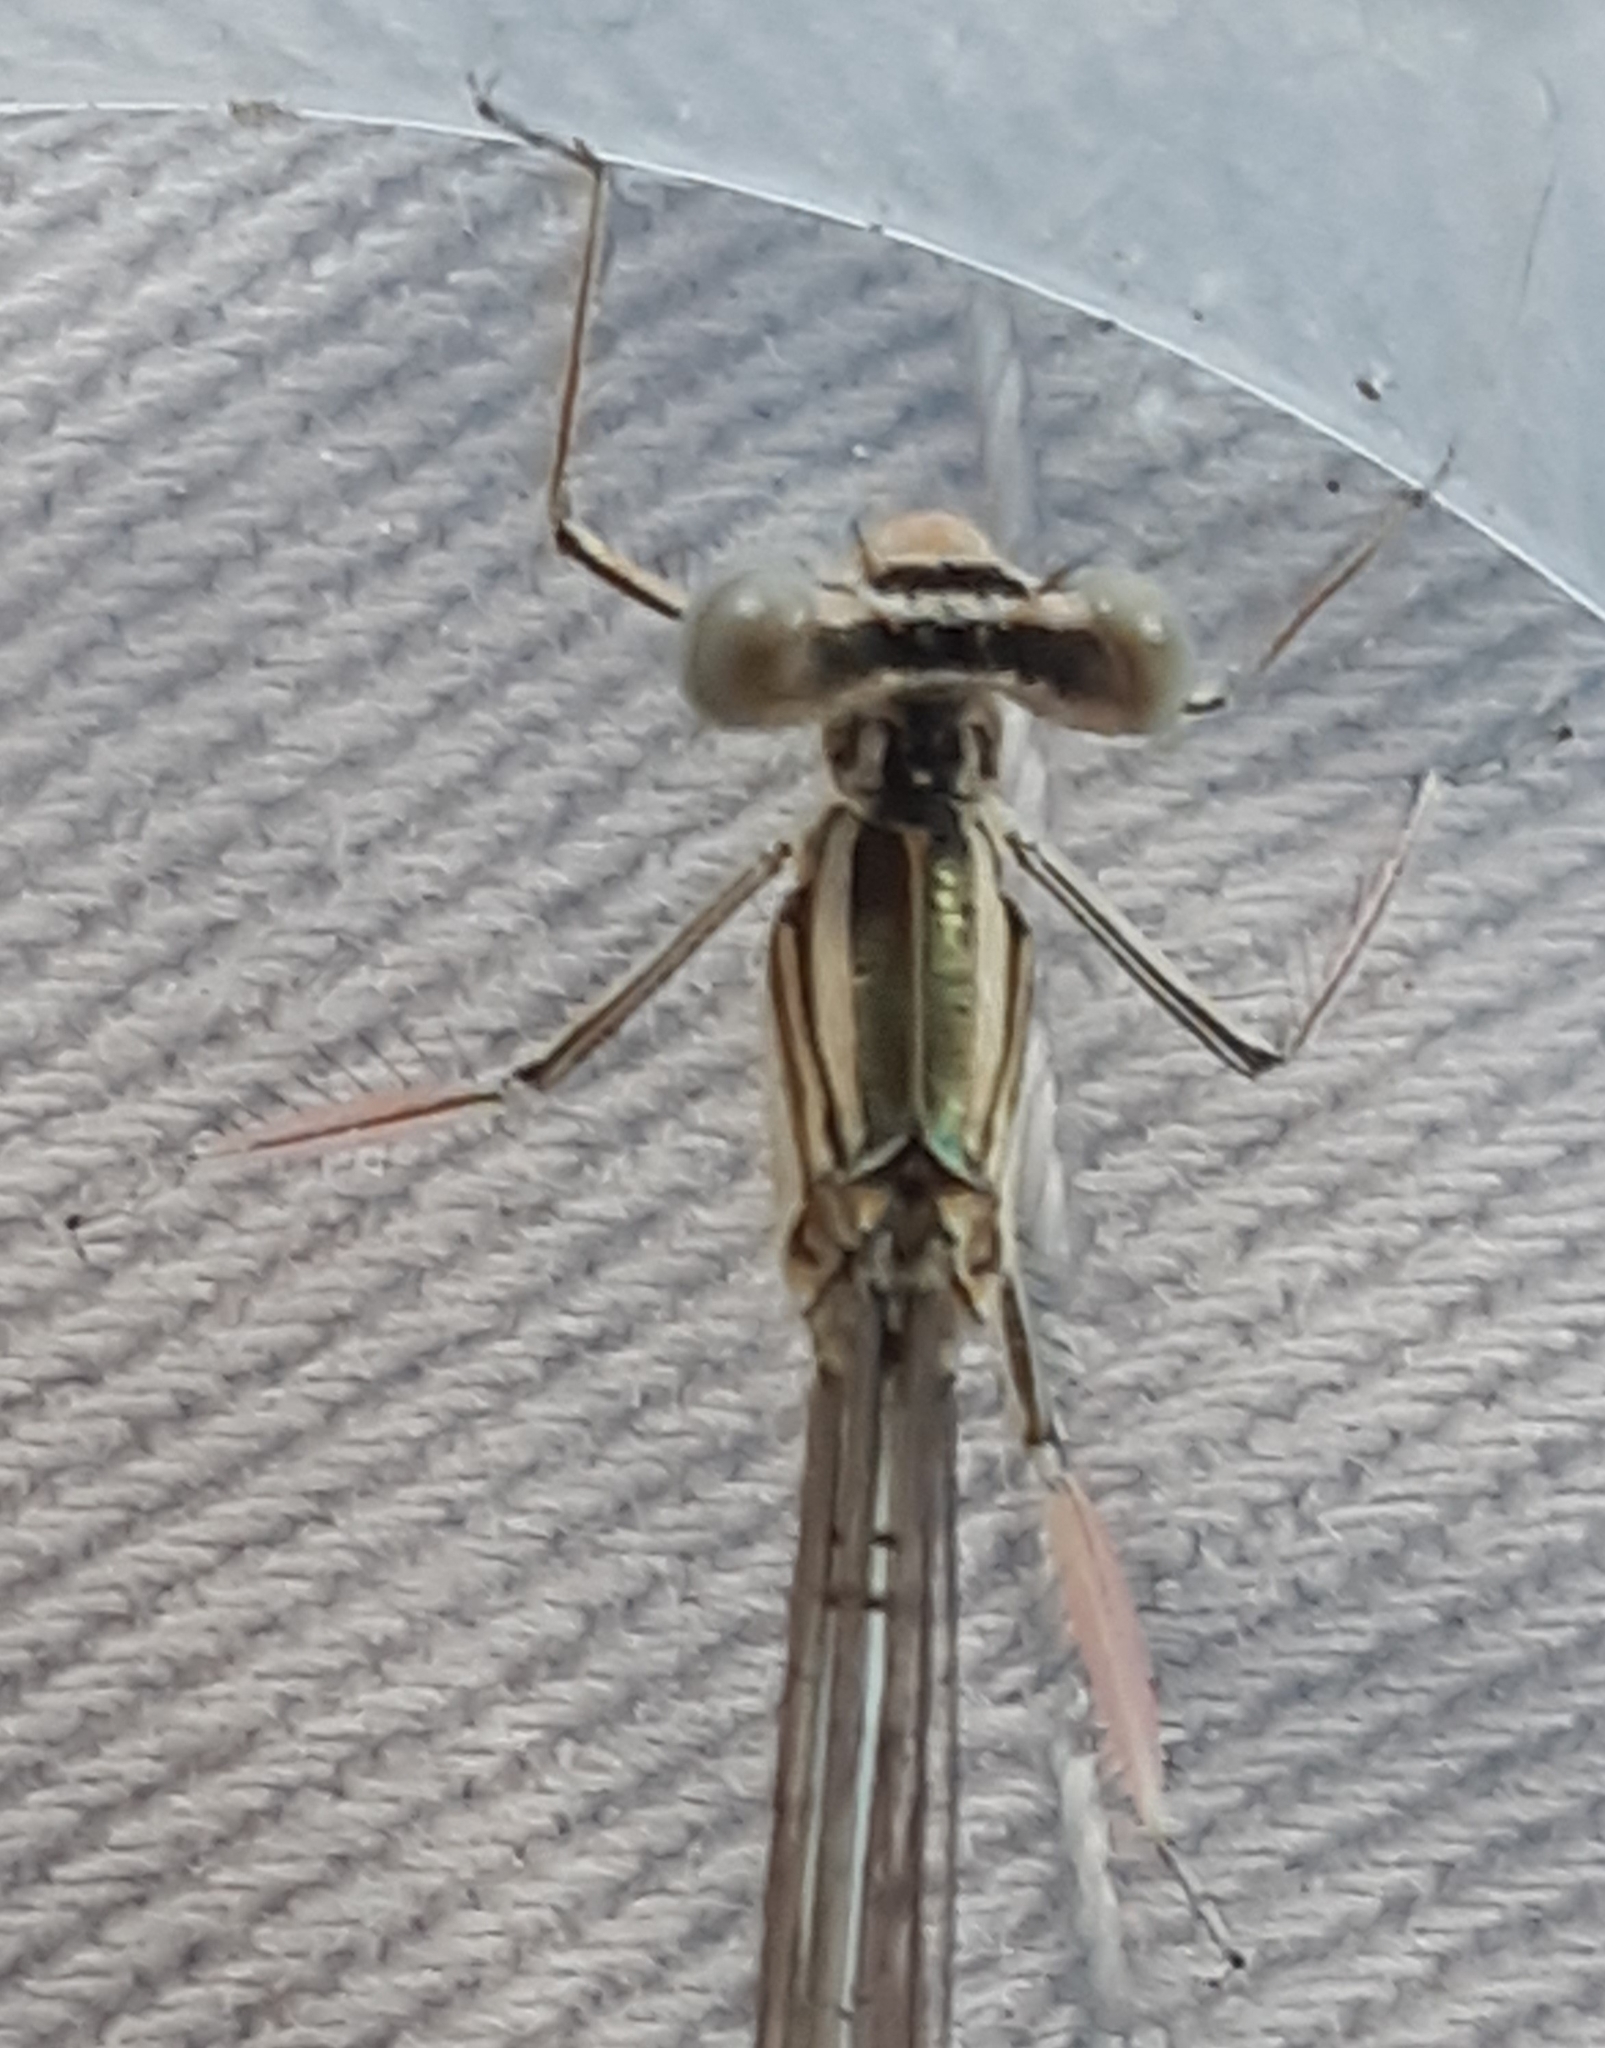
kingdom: Animalia
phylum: Arthropoda
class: Insecta
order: Odonata
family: Platycnemididae
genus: Platycnemis
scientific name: Platycnemis pennipes
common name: White-legged damselfly
